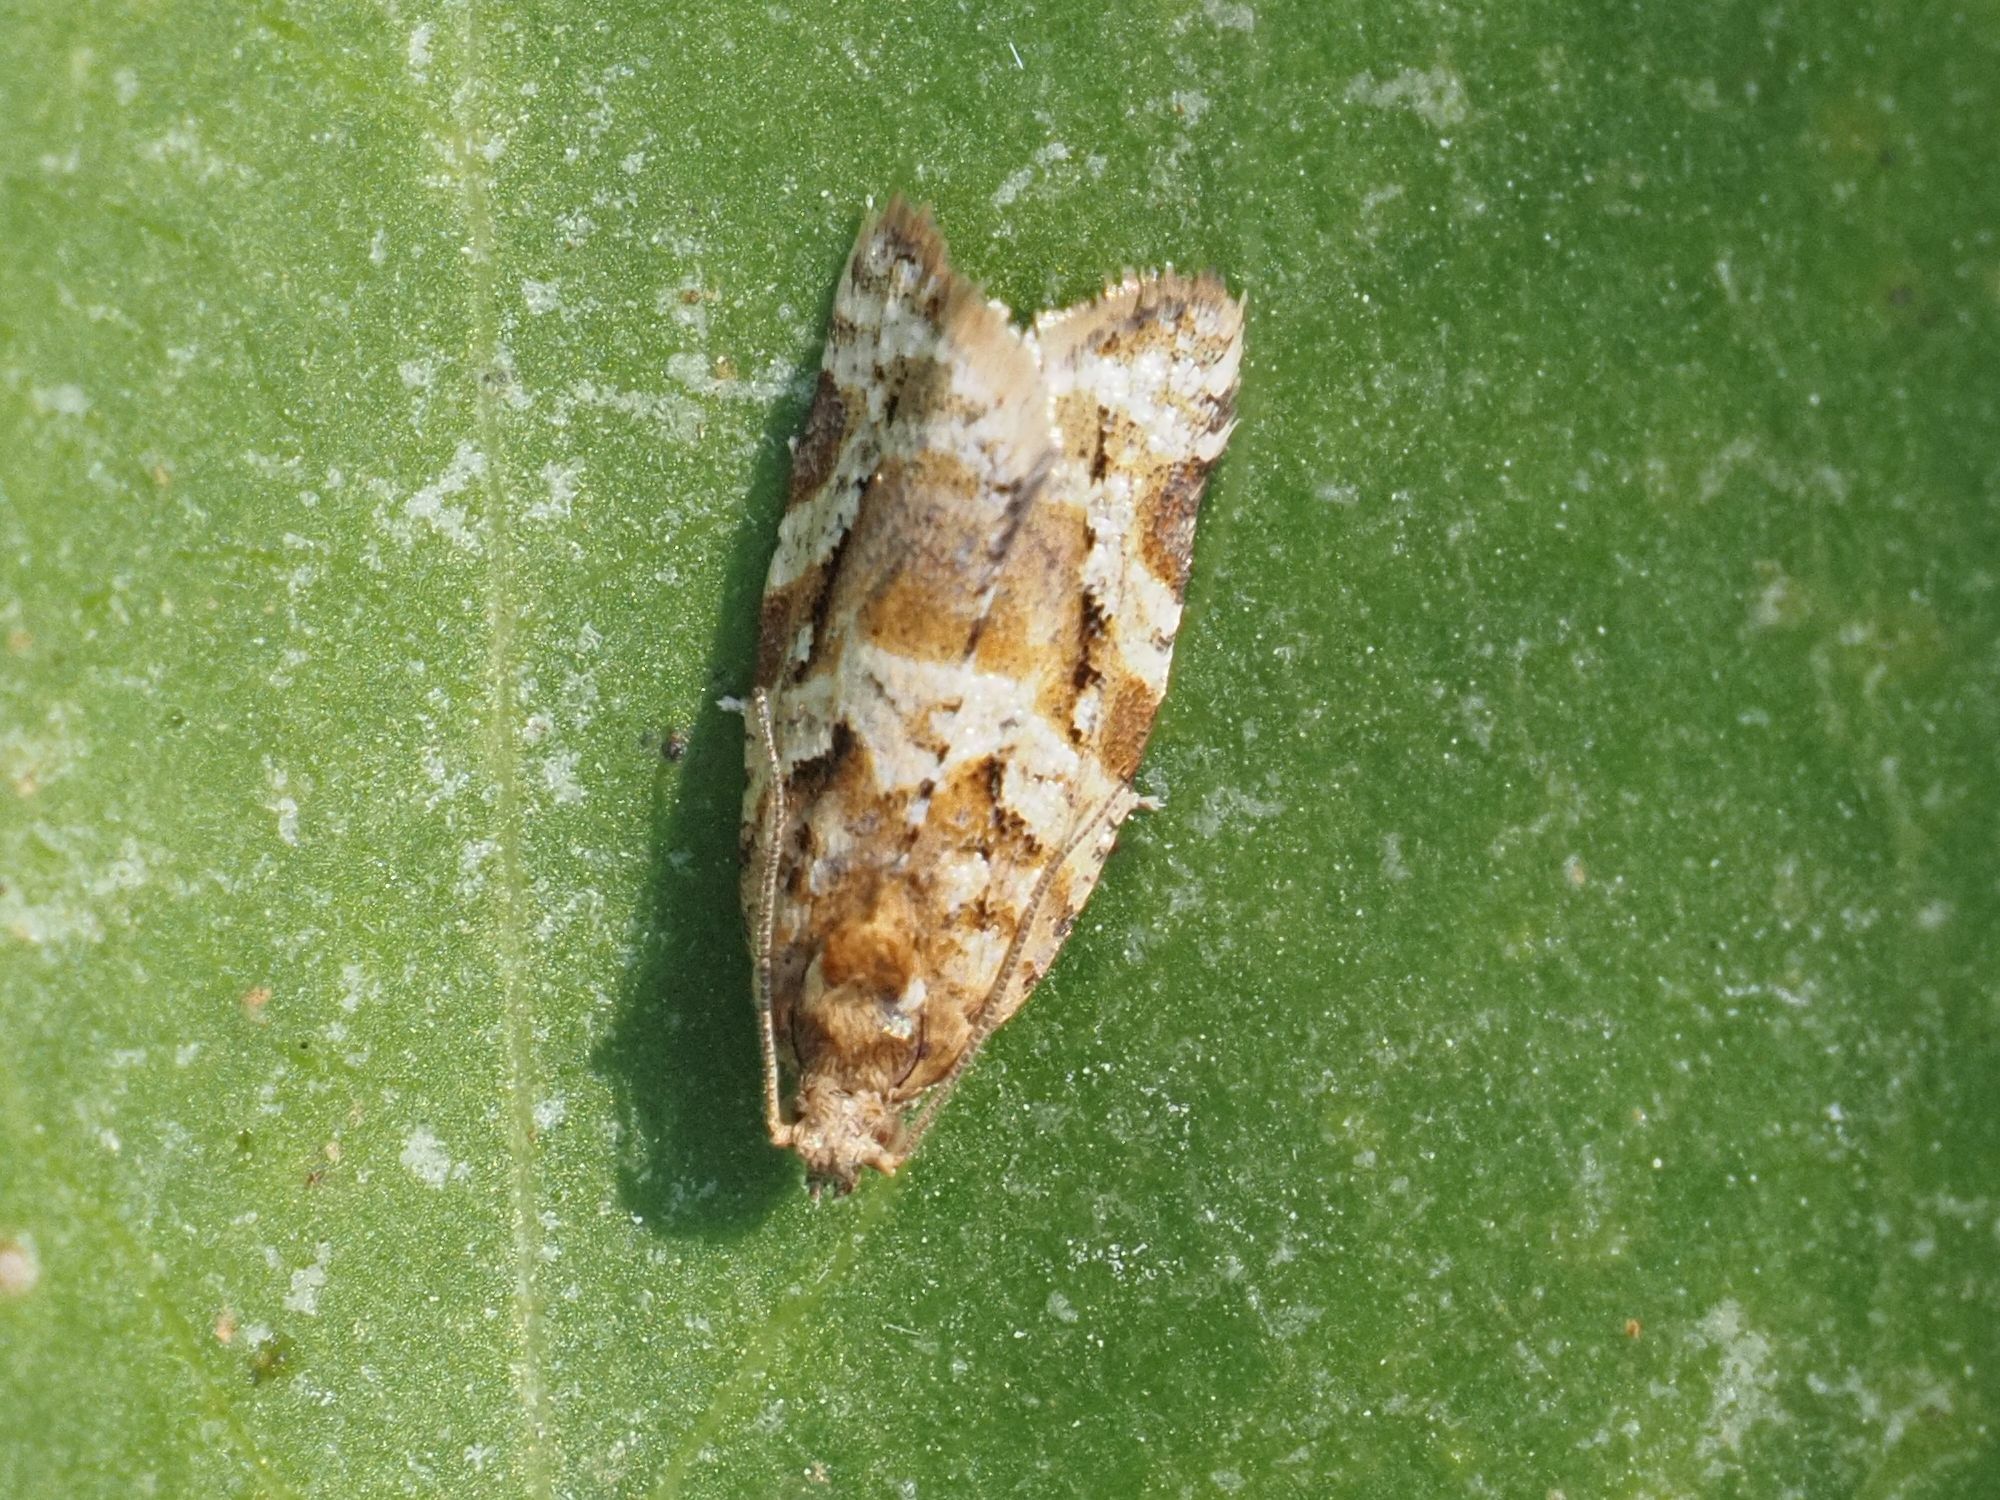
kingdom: Animalia
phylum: Arthropoda
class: Insecta
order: Lepidoptera
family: Tortricidae
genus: Argyrotaenia
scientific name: Argyrotaenia ljungiana
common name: Heather twist
